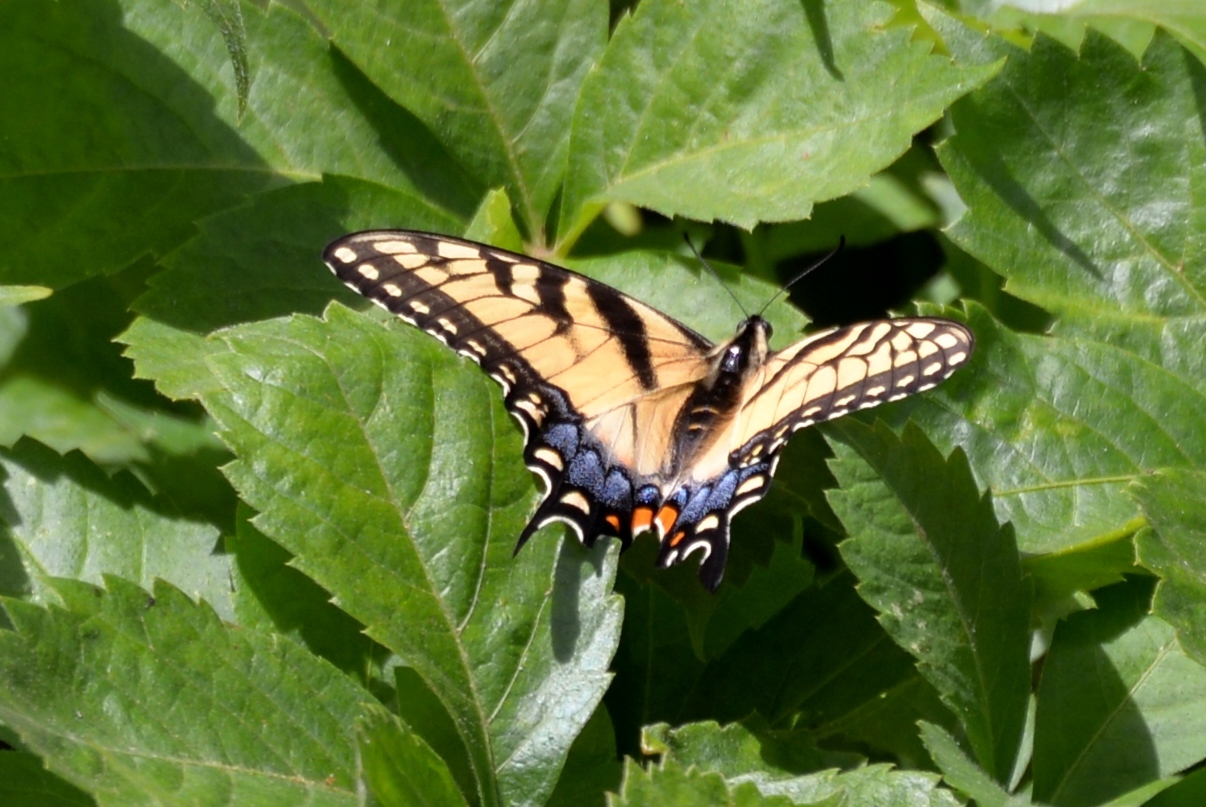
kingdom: Animalia
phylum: Arthropoda
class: Insecta
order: Lepidoptera
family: Papilionidae
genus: Papilio
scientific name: Papilio glaucus
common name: Tiger swallowtail
